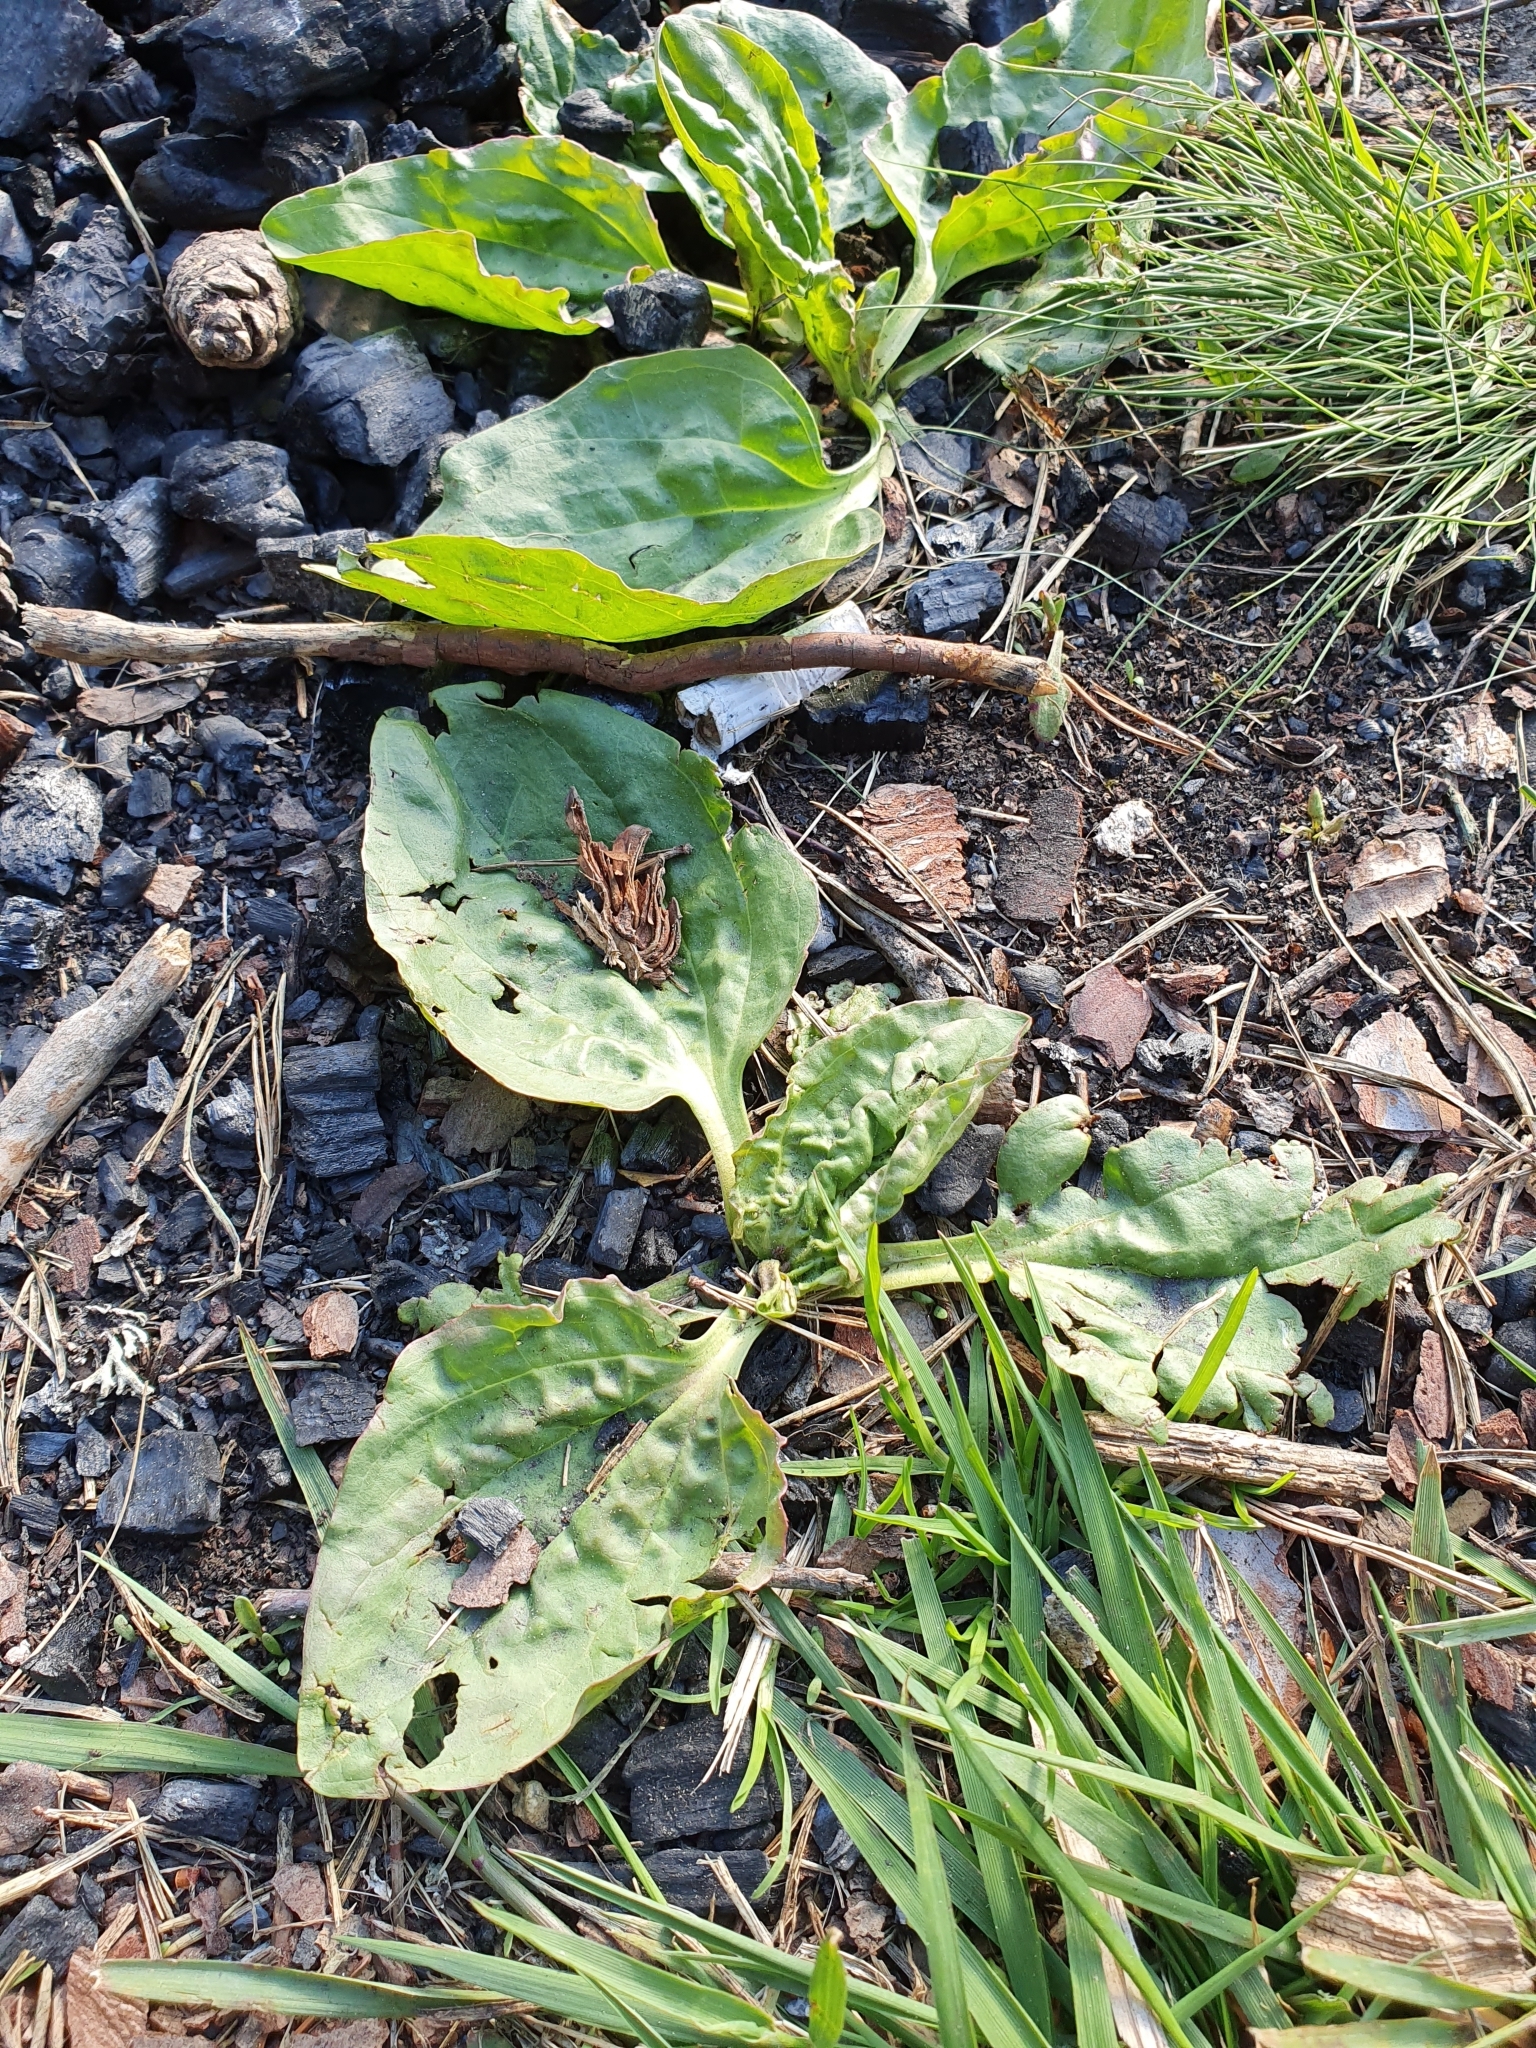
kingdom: Plantae
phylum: Tracheophyta
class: Magnoliopsida
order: Lamiales
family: Plantaginaceae
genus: Plantago
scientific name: Plantago major
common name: Common plantain
